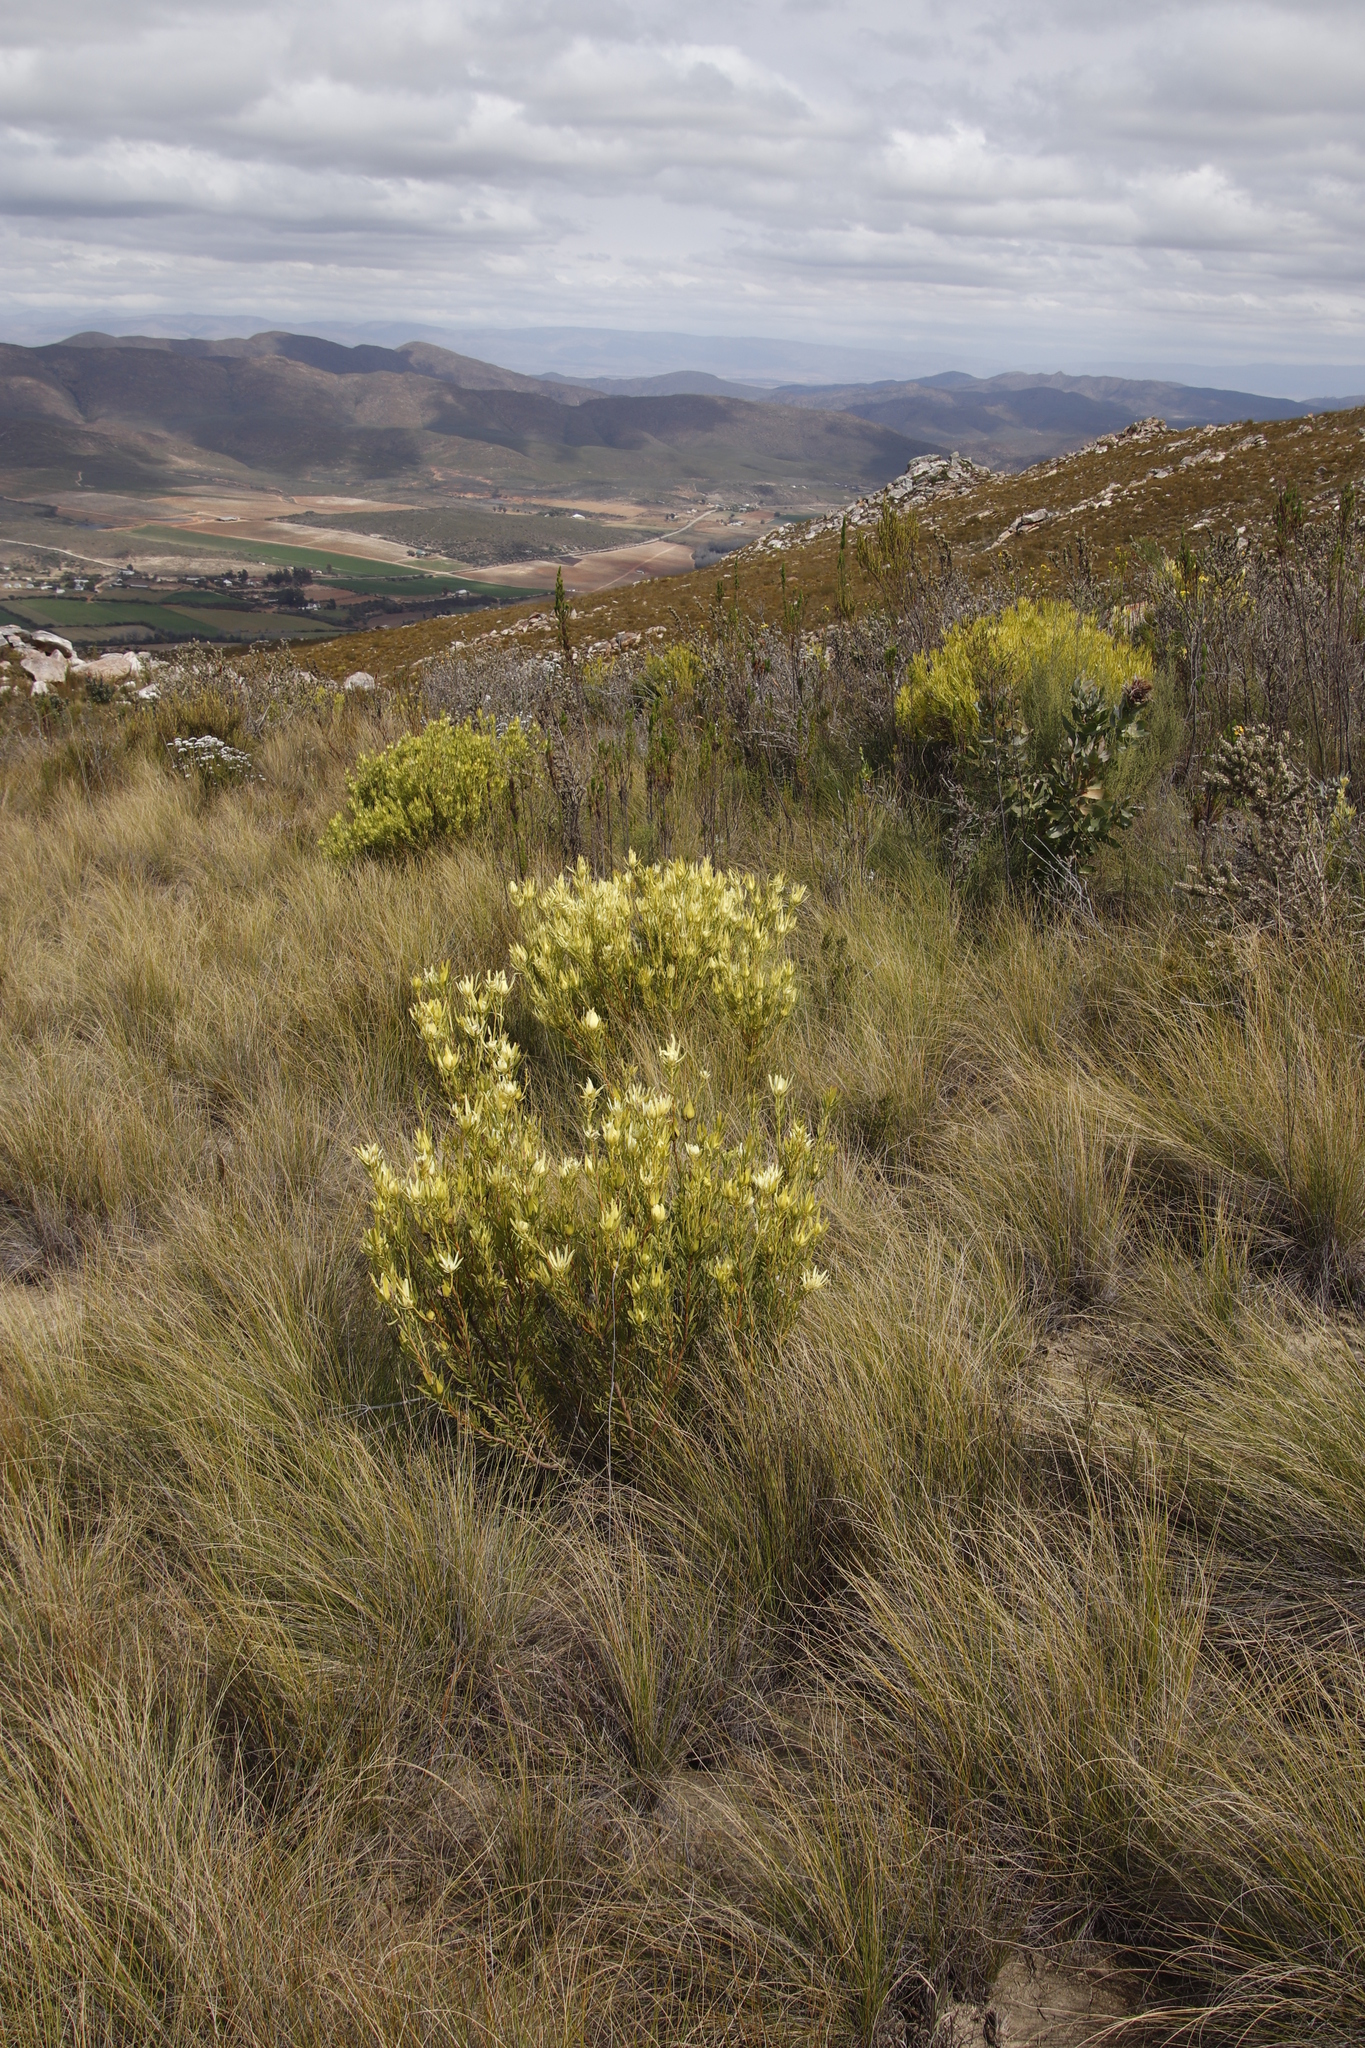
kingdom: Plantae
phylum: Tracheophyta
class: Magnoliopsida
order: Proteales
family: Proteaceae
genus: Leucadendron
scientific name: Leucadendron salignum
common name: Common sunshine conebush
